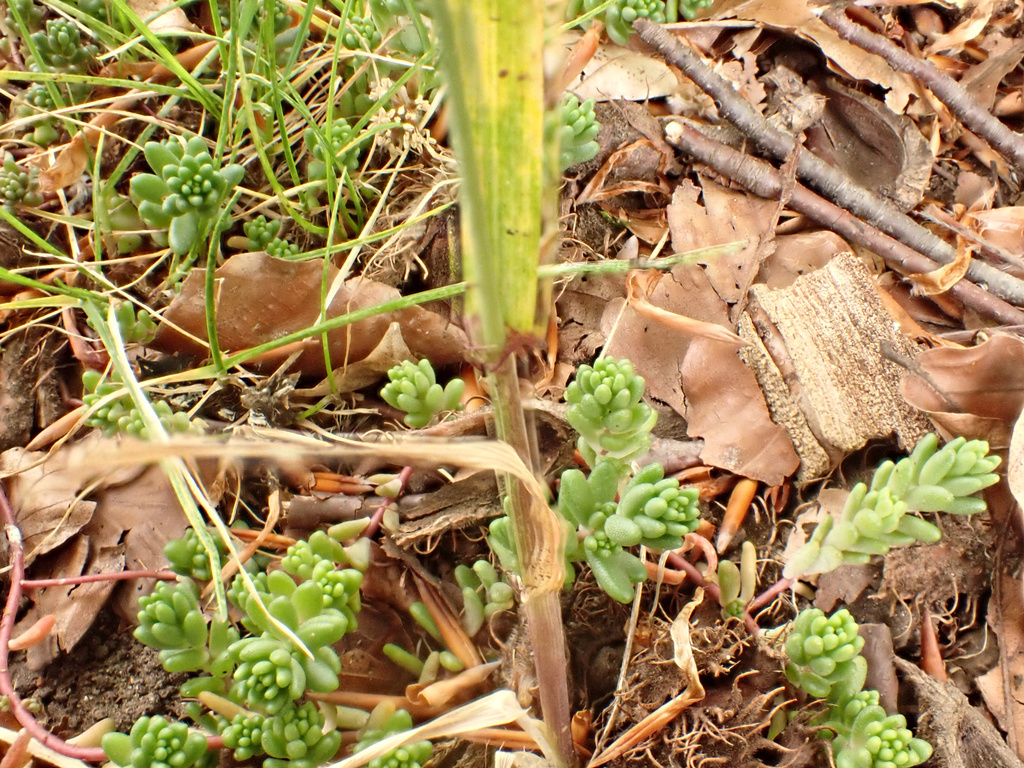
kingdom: Plantae
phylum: Tracheophyta
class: Magnoliopsida
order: Saxifragales
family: Crassulaceae
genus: Sedum
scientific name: Sedum album
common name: White stonecrop
